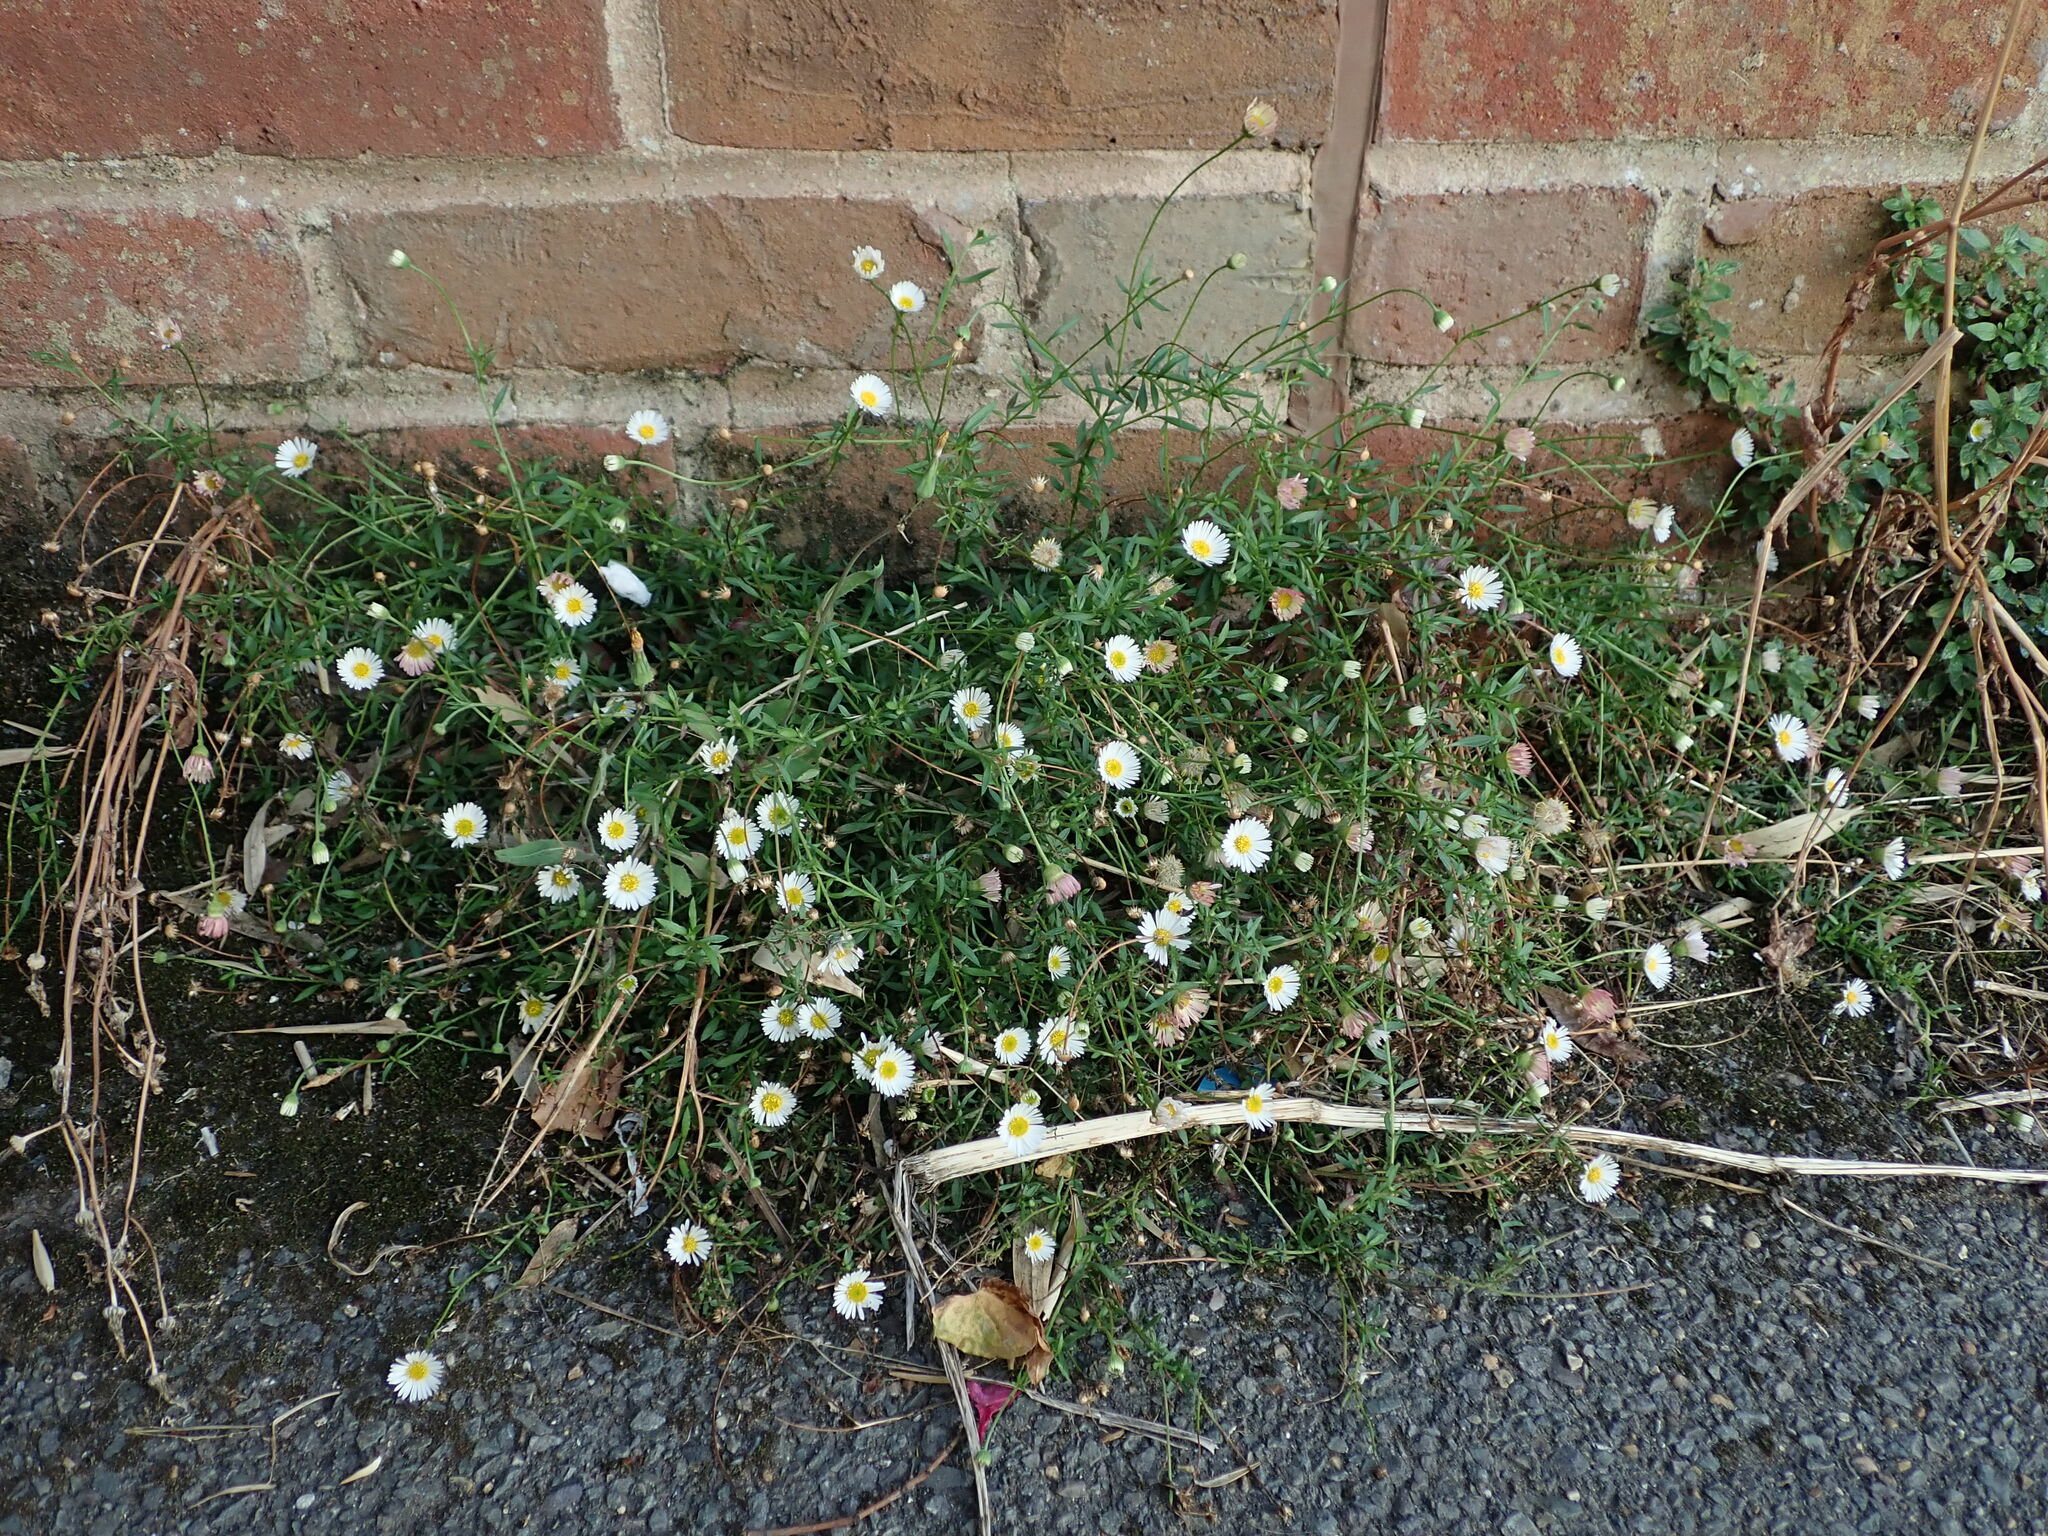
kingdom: Plantae
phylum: Tracheophyta
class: Magnoliopsida
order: Asterales
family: Asteraceae
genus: Erigeron
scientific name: Erigeron karvinskianus
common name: Mexican fleabane
